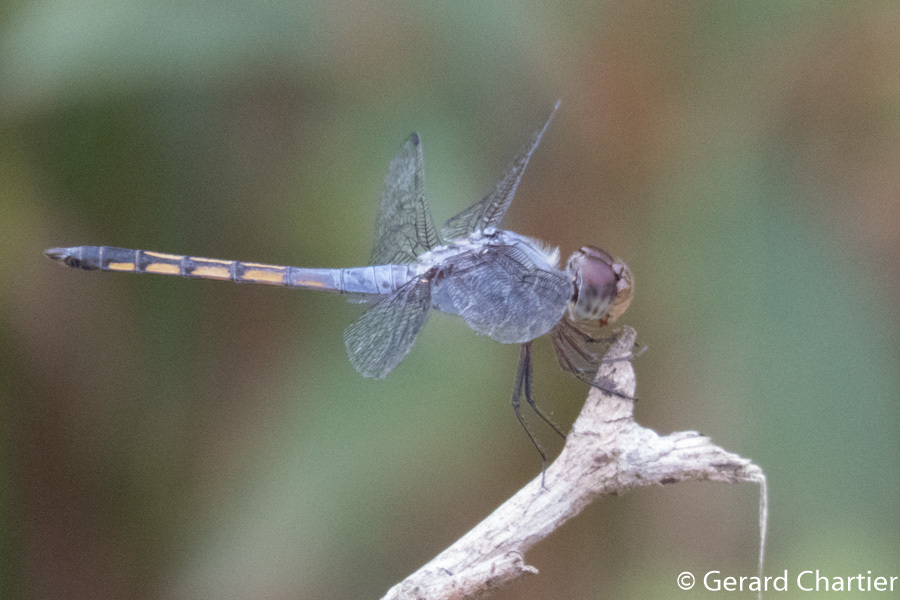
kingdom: Animalia
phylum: Arthropoda
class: Insecta
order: Odonata
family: Libellulidae
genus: Potamarcha
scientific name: Potamarcha congener
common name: Blue chaser
